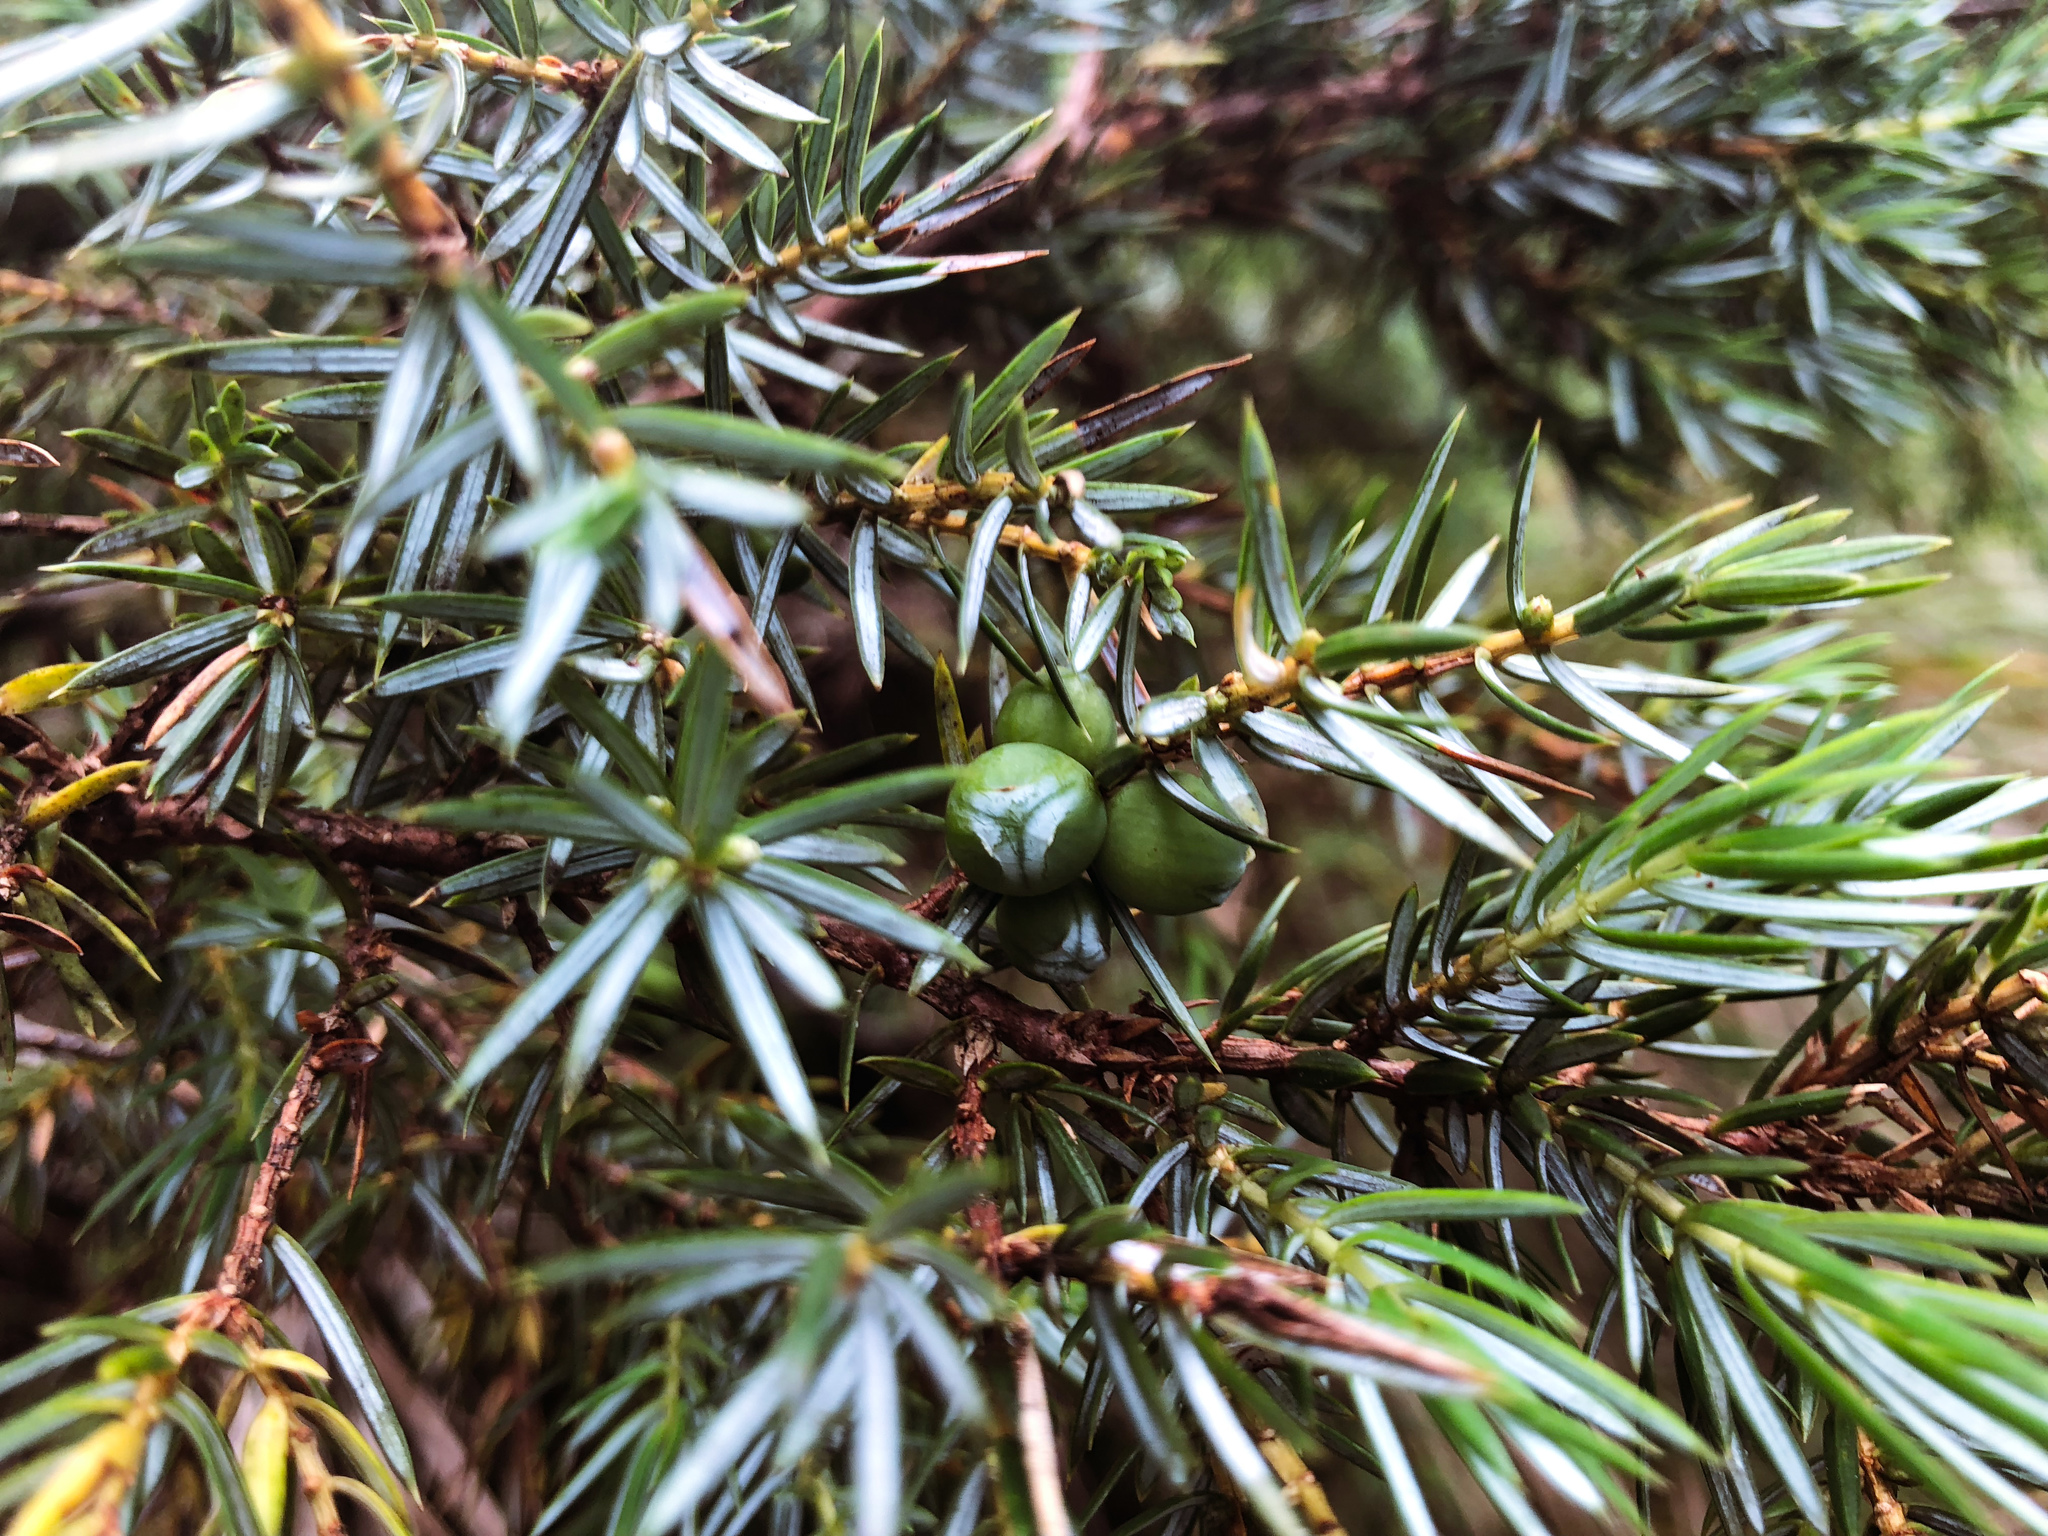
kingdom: Plantae
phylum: Tracheophyta
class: Pinopsida
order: Pinales
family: Cupressaceae
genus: Juniperus
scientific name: Juniperus formosana
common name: Formosan juniper
